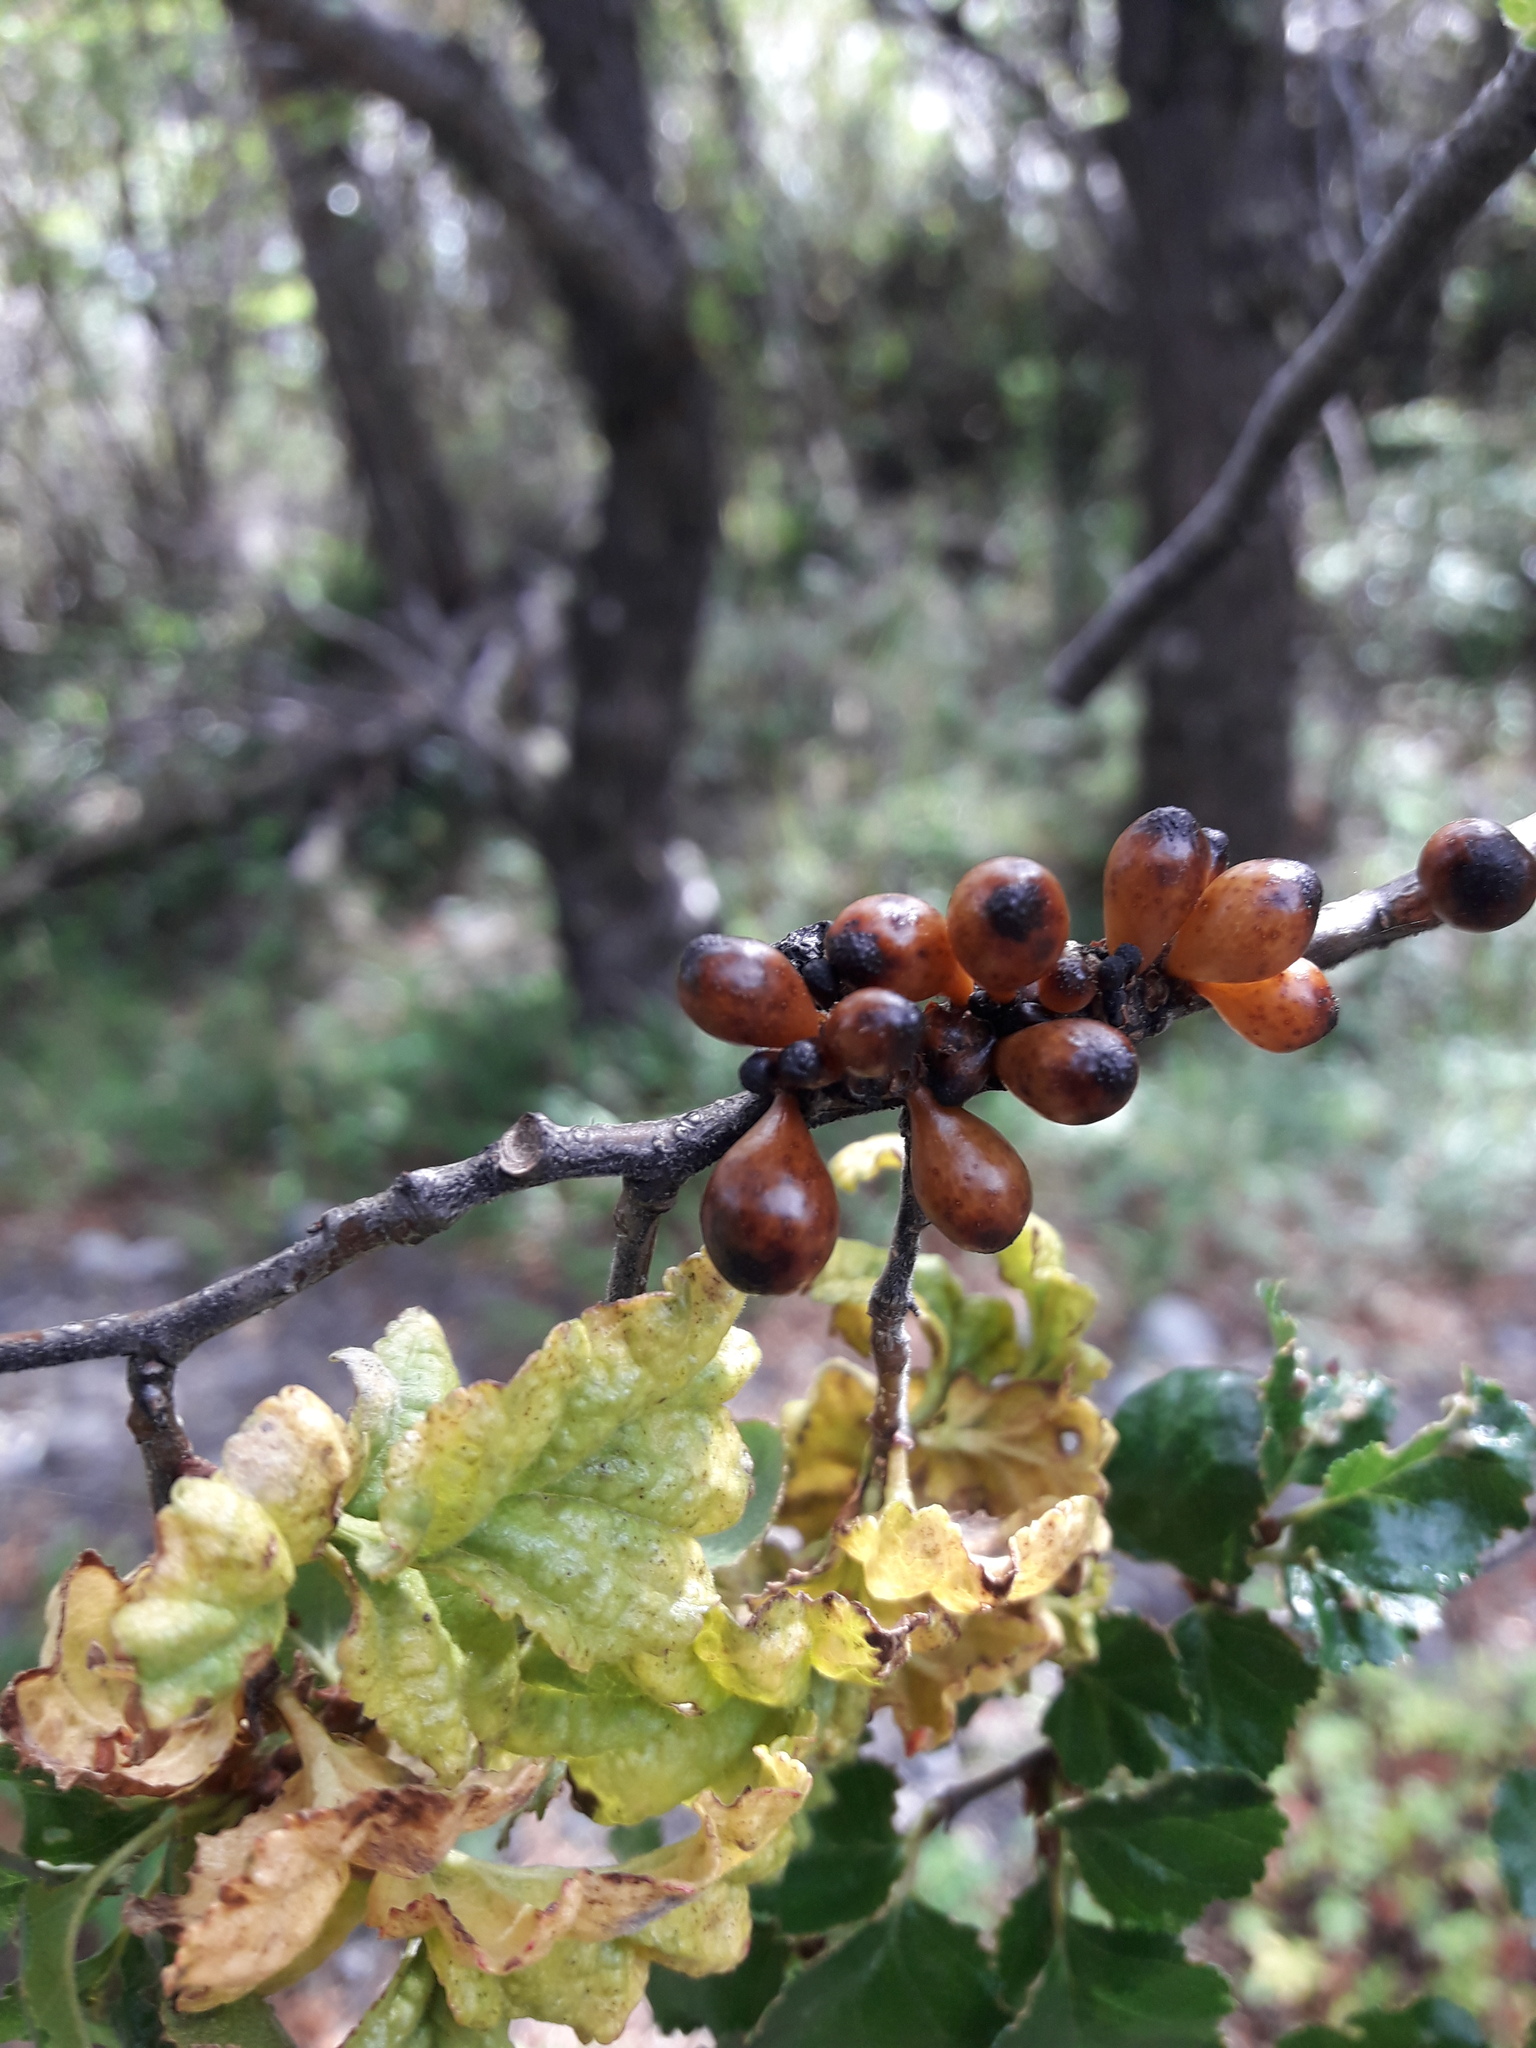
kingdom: Fungi
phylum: Ascomycota
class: Leotiomycetes
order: Cyttariales
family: Cyttariaceae
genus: Cyttaria
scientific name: Cyttaria hookeri
